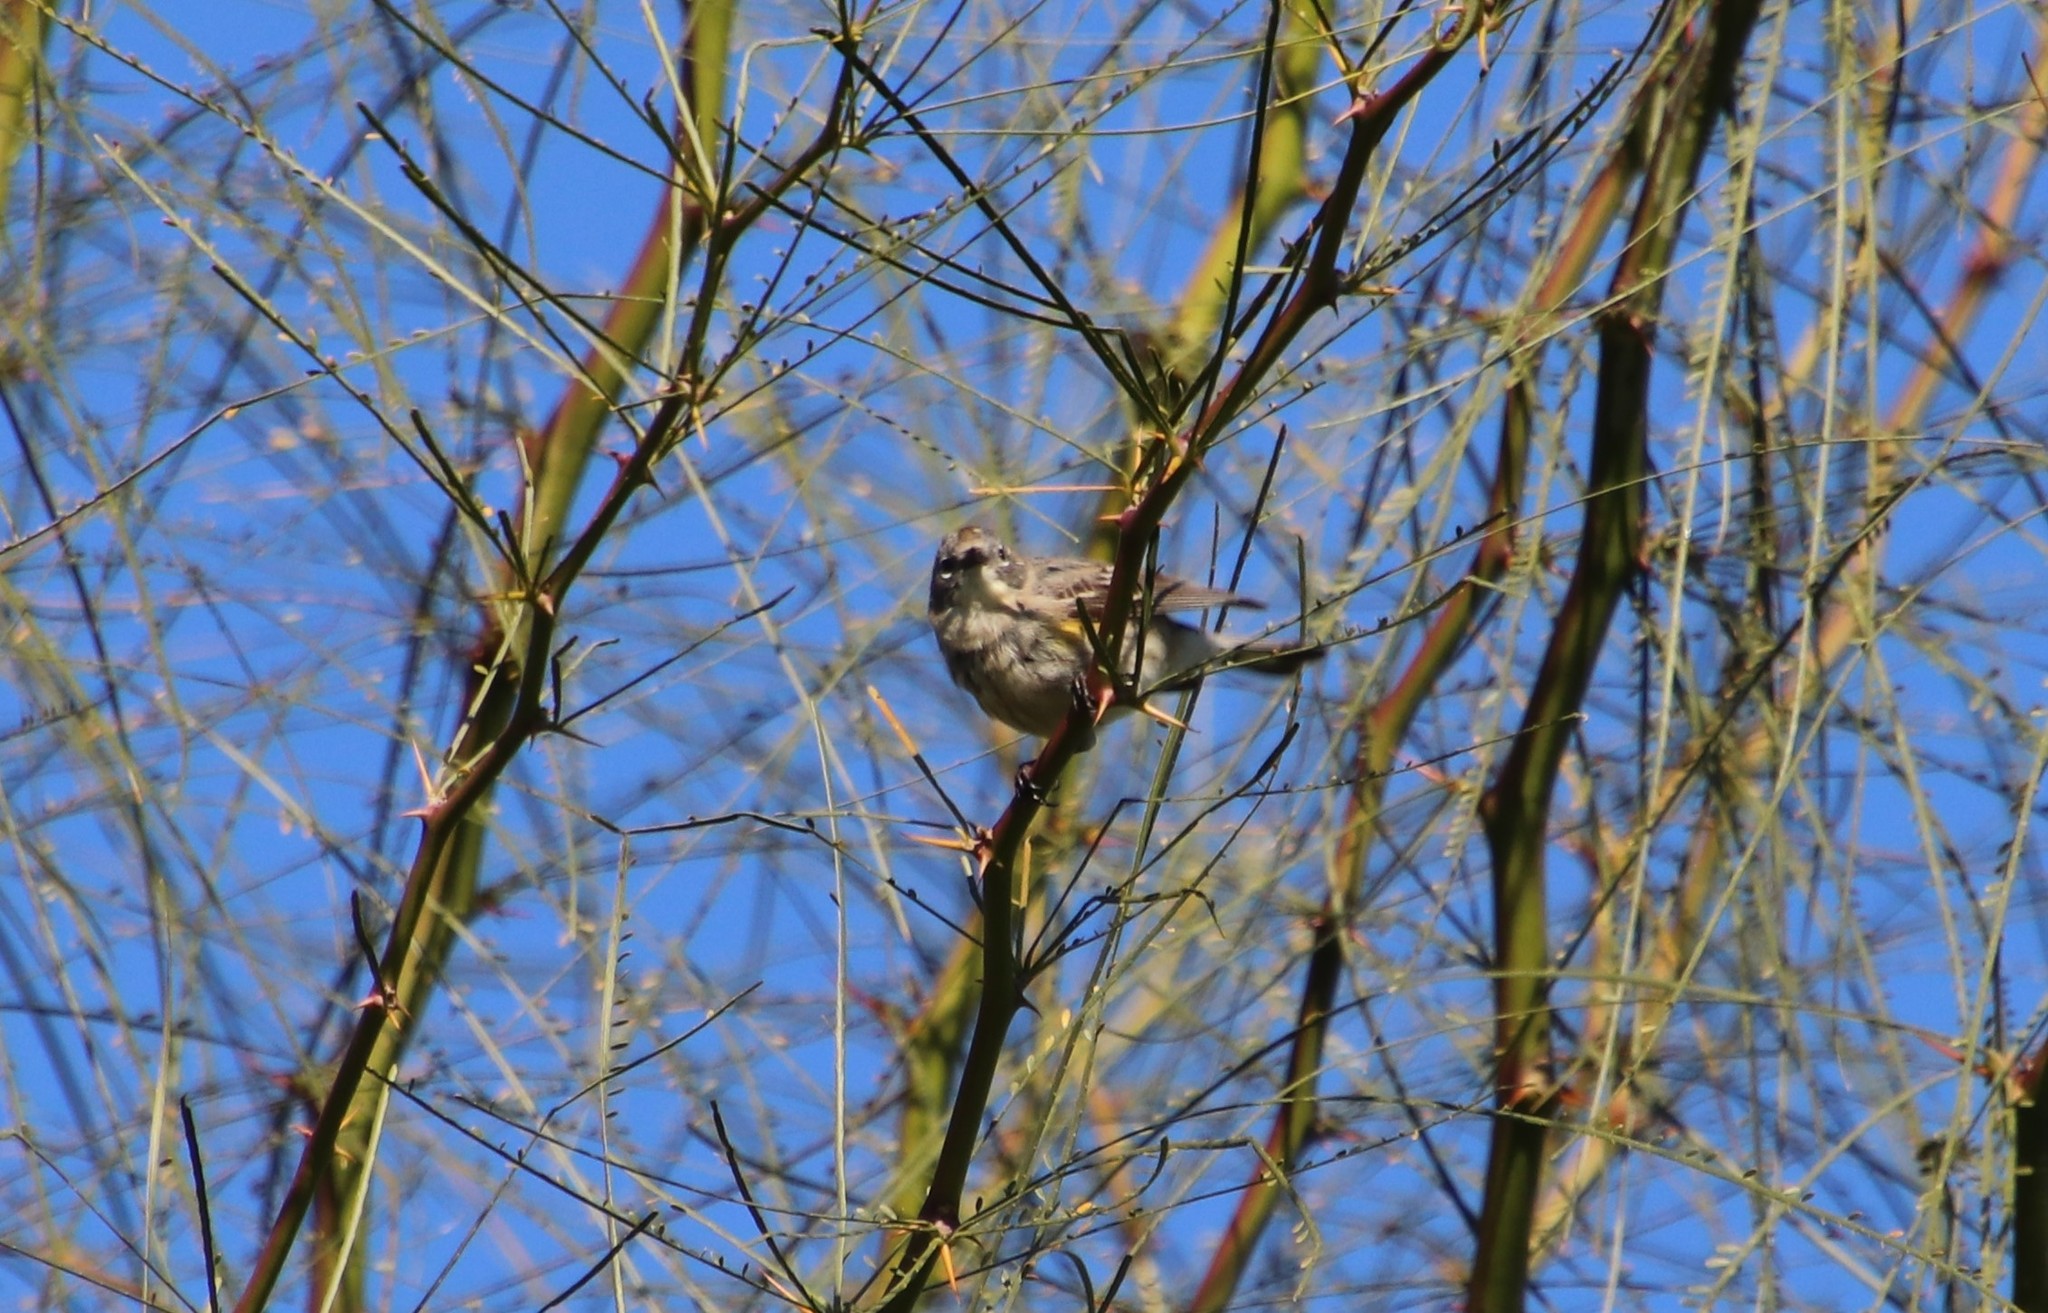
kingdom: Animalia
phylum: Chordata
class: Aves
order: Passeriformes
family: Parulidae
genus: Setophaga
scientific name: Setophaga auduboni
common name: Audubon's warbler
